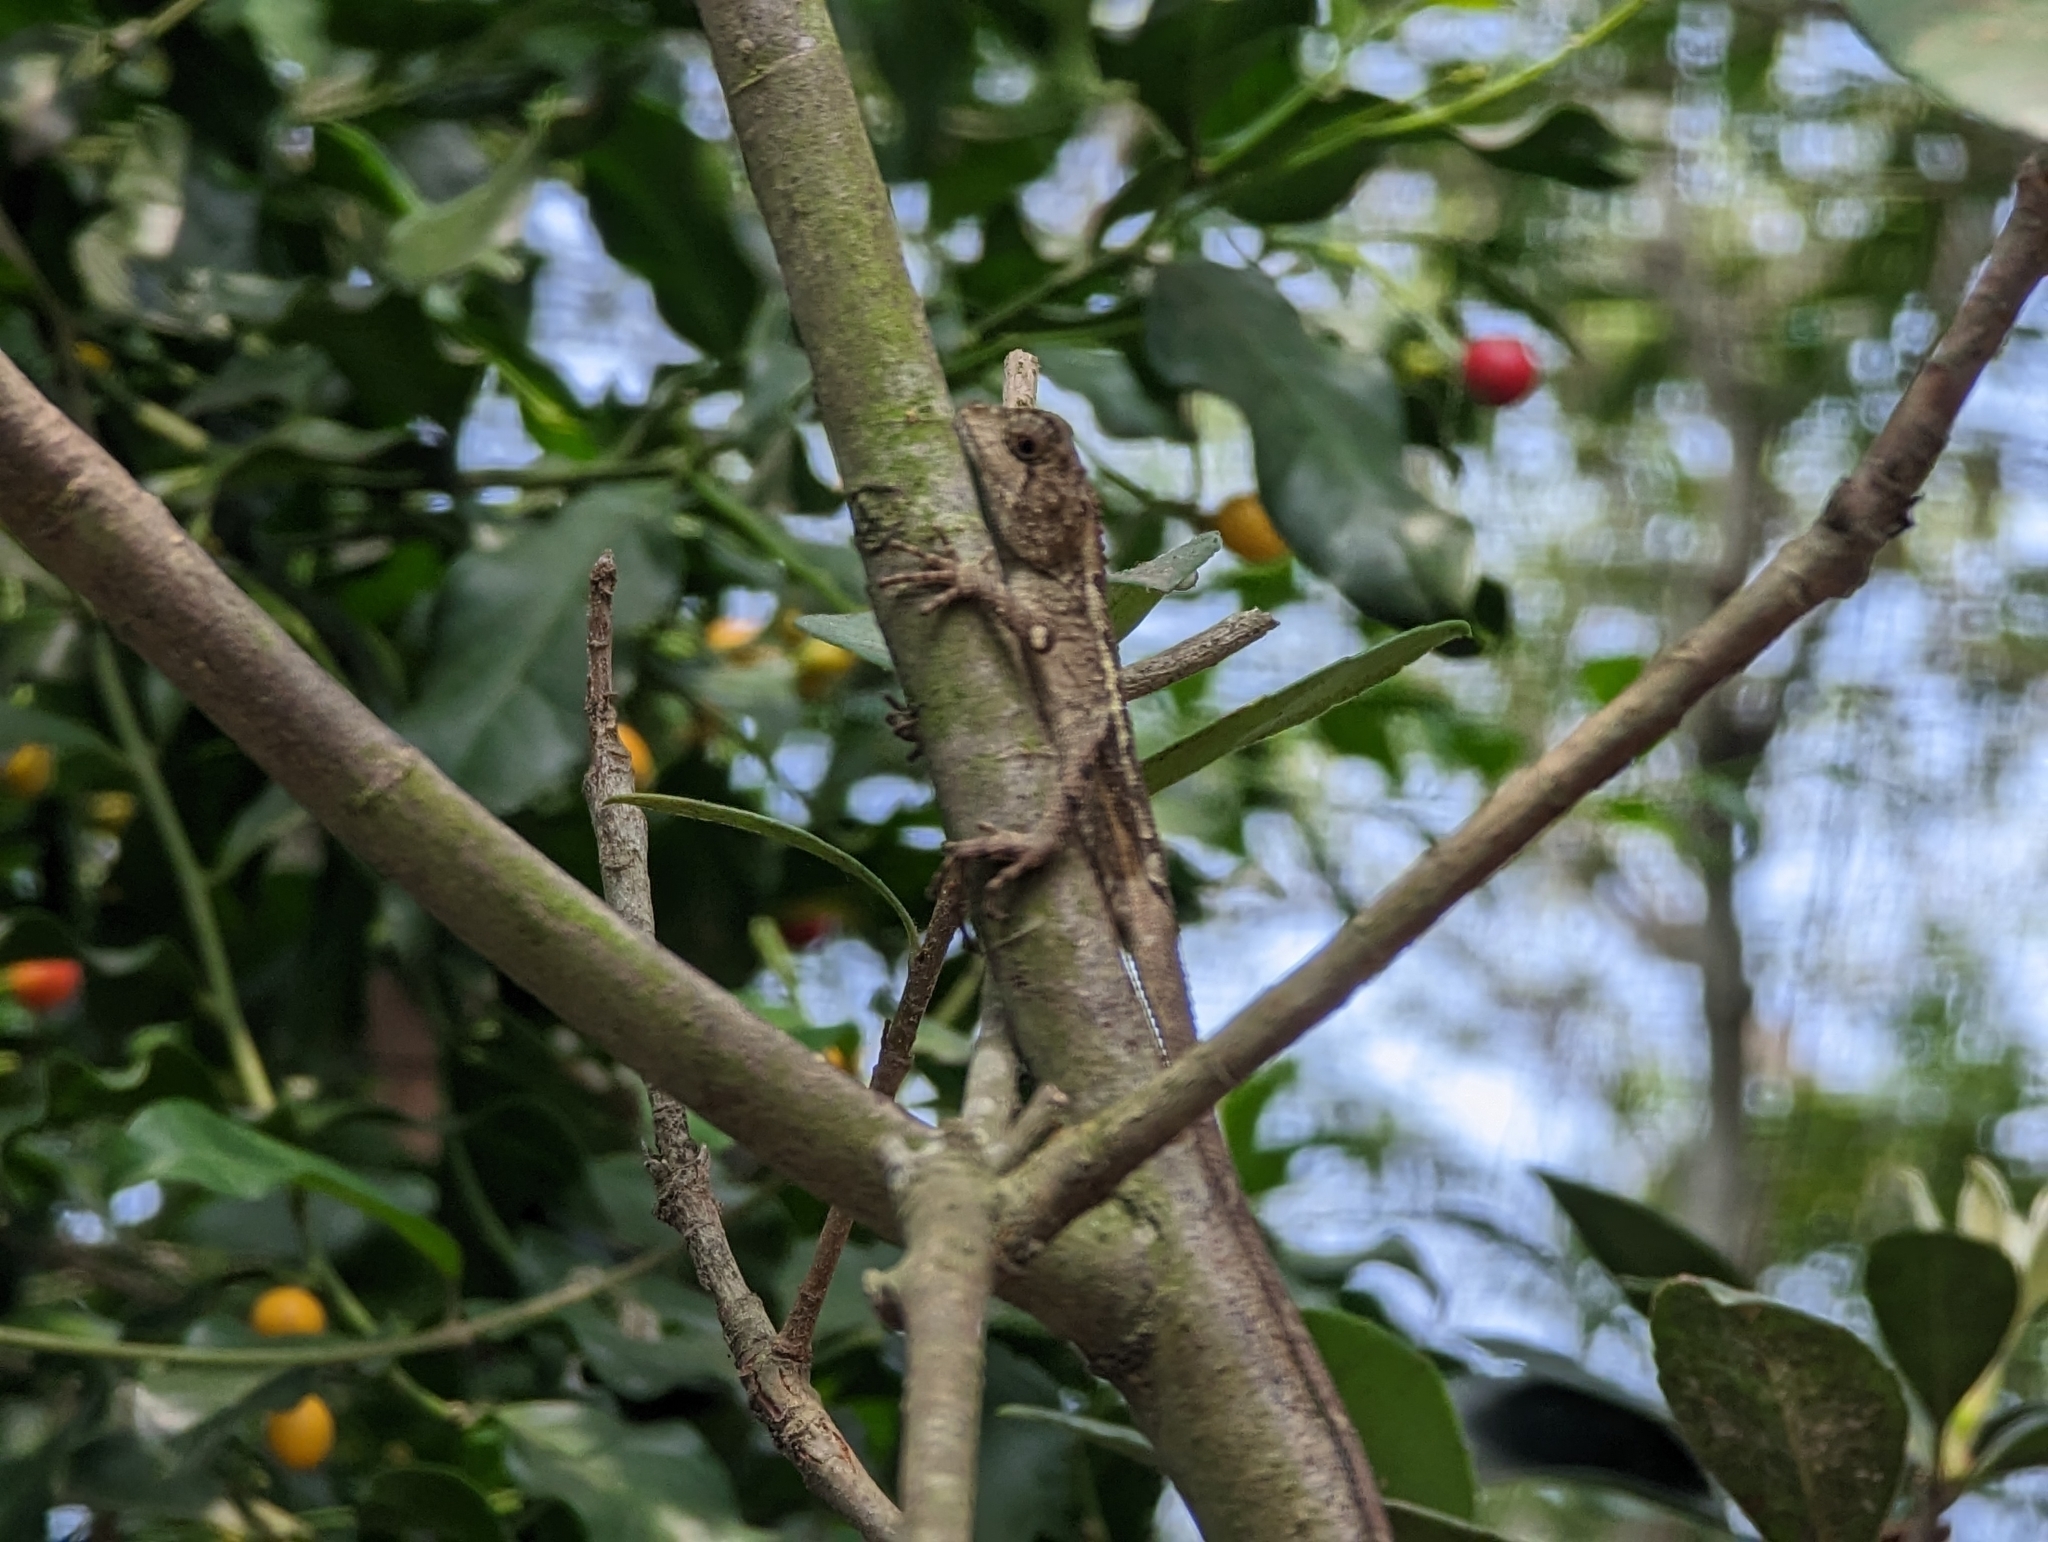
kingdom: Animalia
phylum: Chordata
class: Squamata
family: Agamidae
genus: Diploderma
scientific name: Diploderma swinhonis
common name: Taiwan japalure
